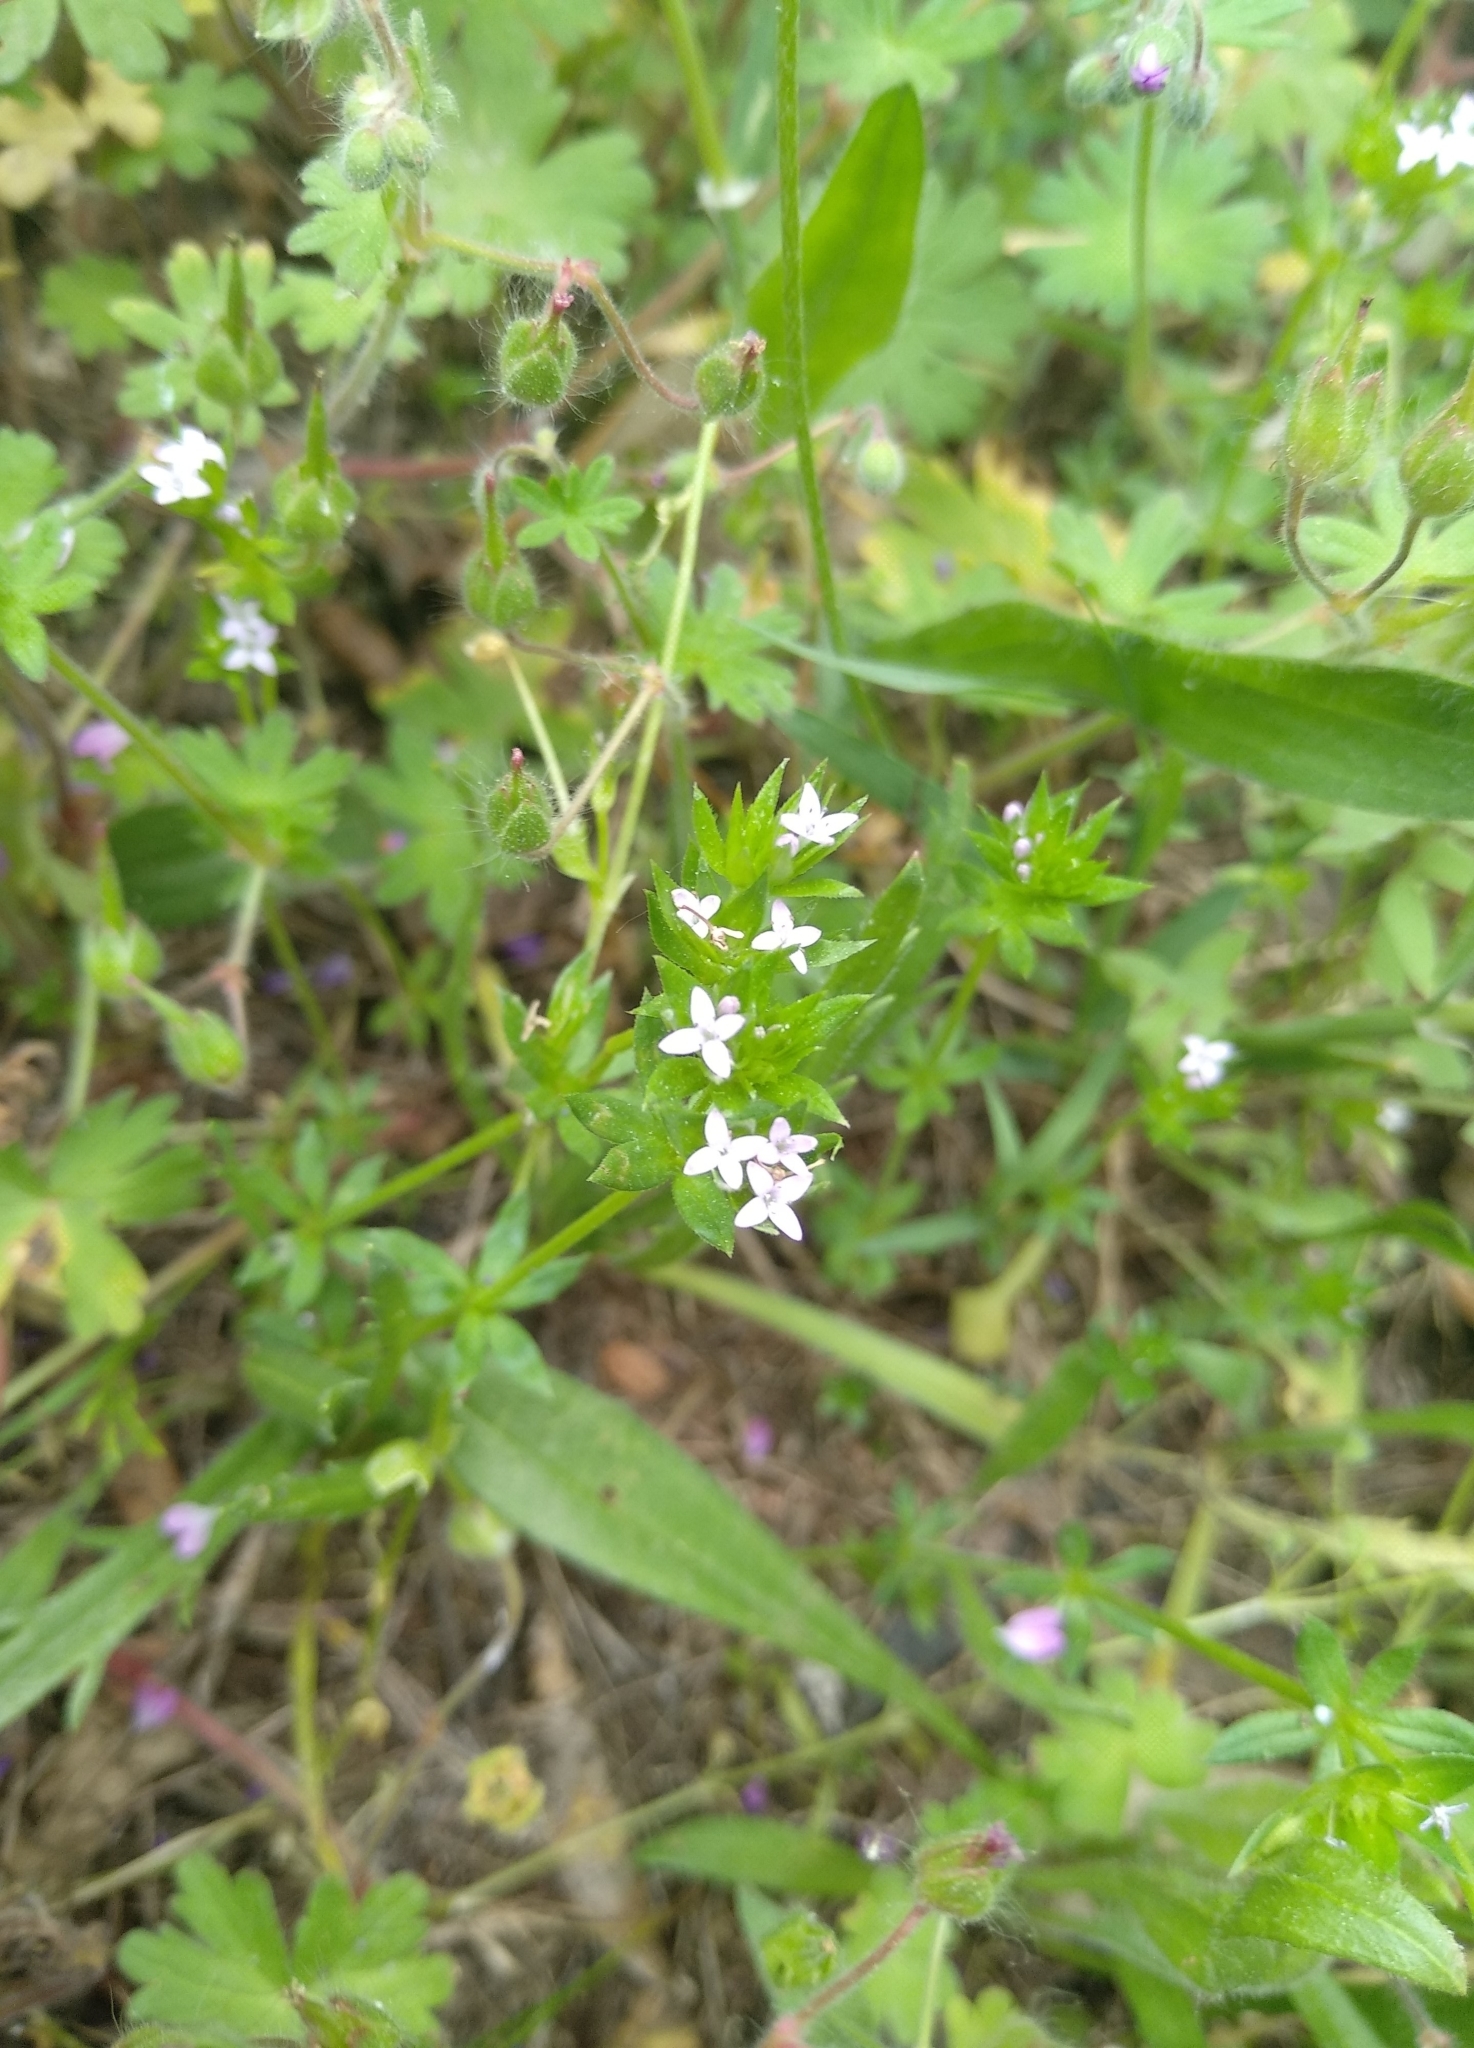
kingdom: Plantae
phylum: Tracheophyta
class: Magnoliopsida
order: Gentianales
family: Rubiaceae
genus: Sherardia
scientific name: Sherardia arvensis
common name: Field madder
